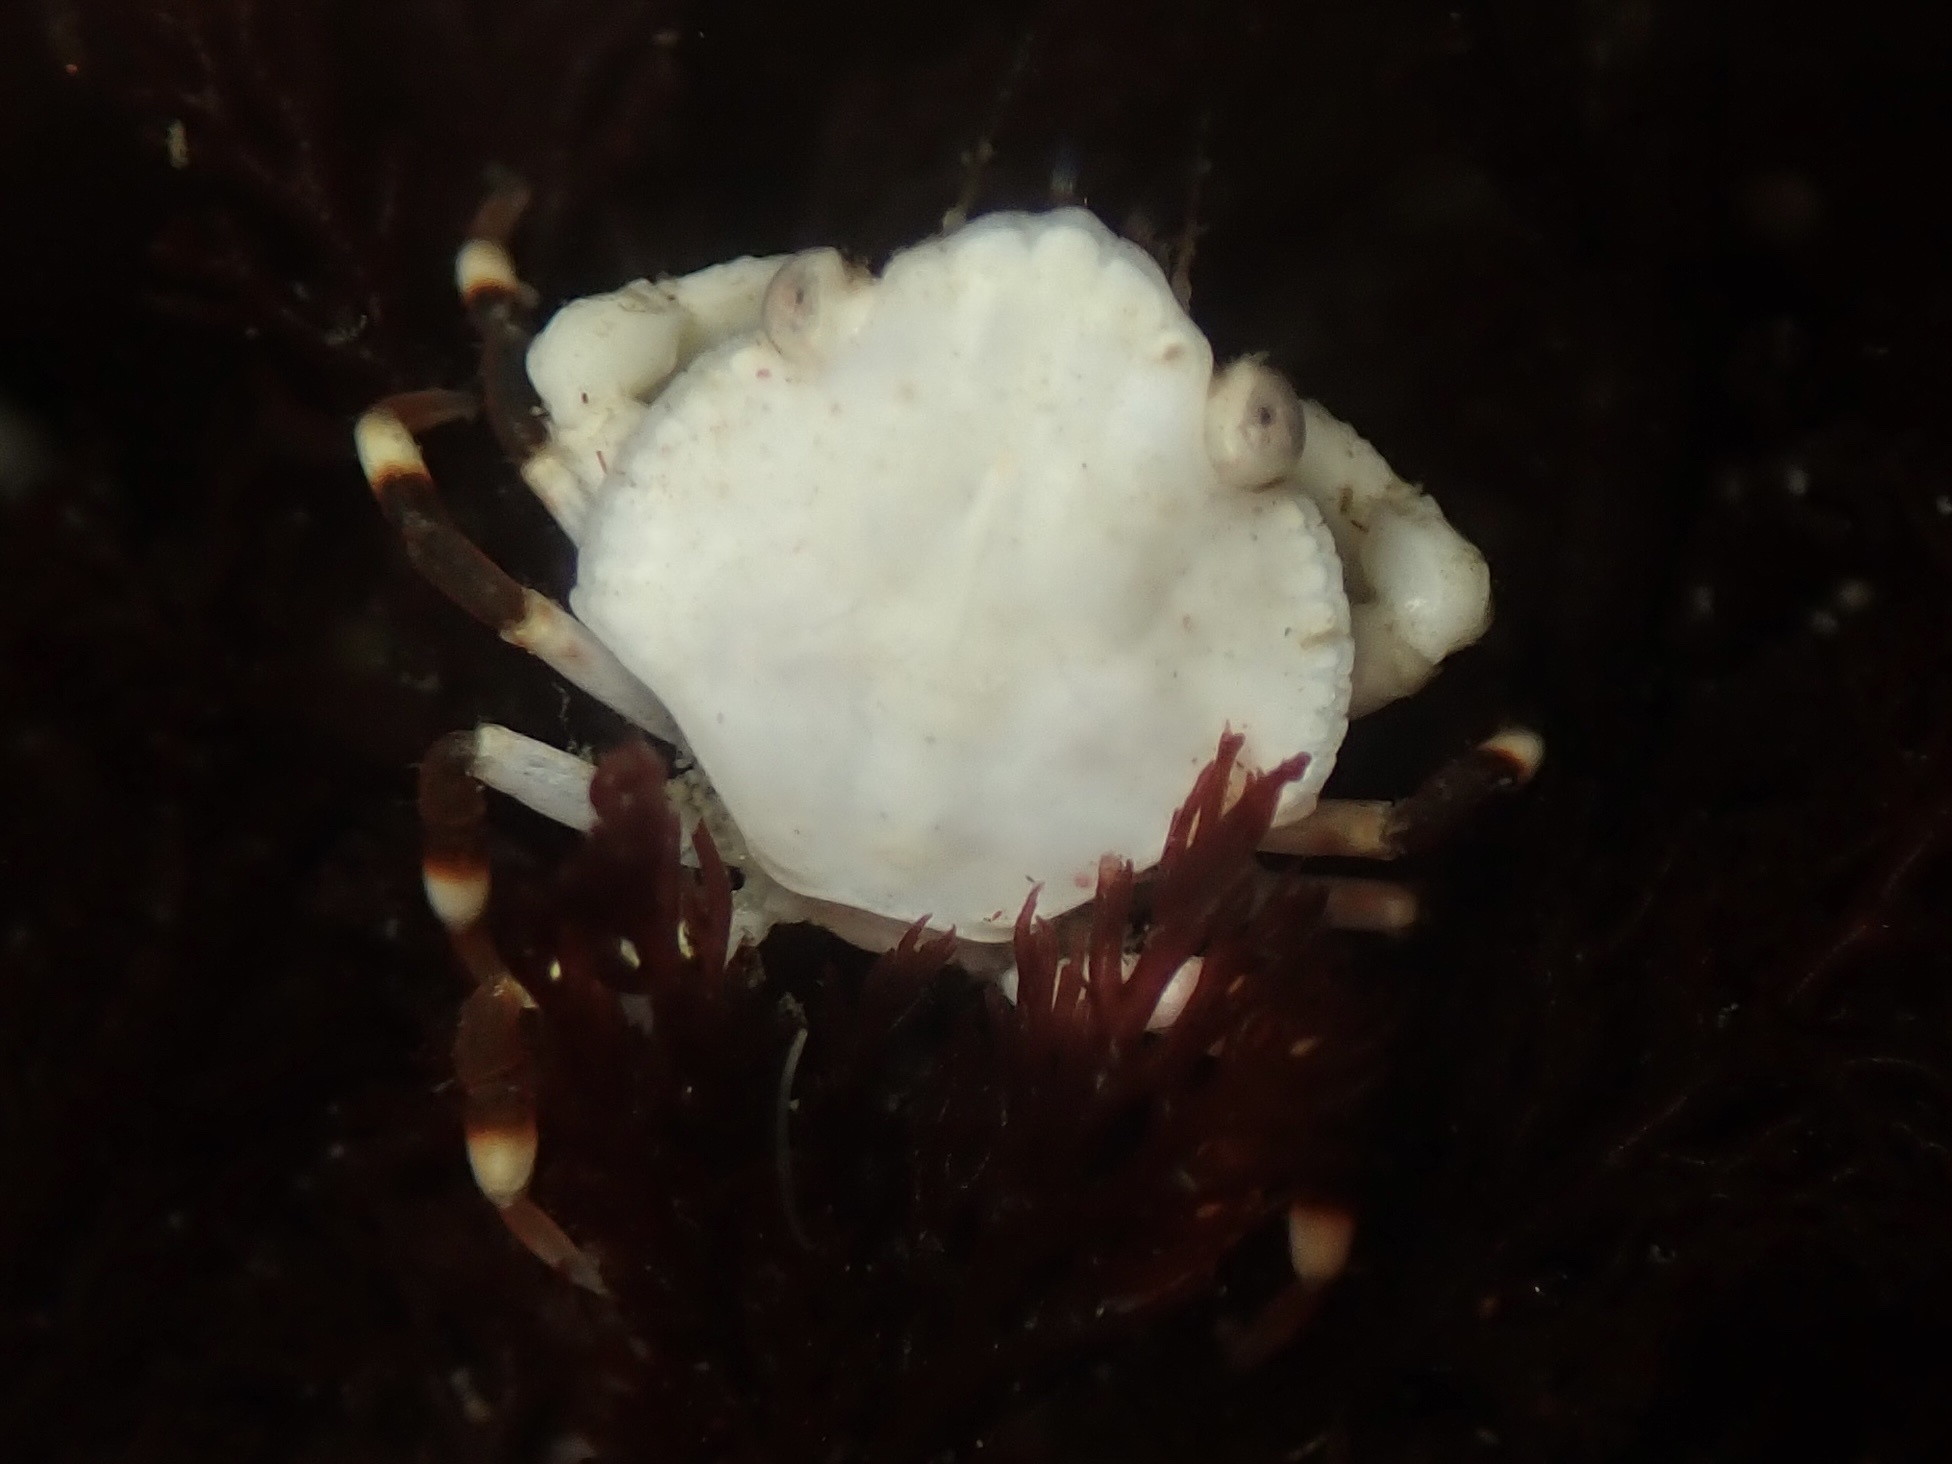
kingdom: Animalia
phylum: Arthropoda
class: Malacostraca
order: Decapoda
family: Cancridae
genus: Cancer
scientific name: Cancer productus
